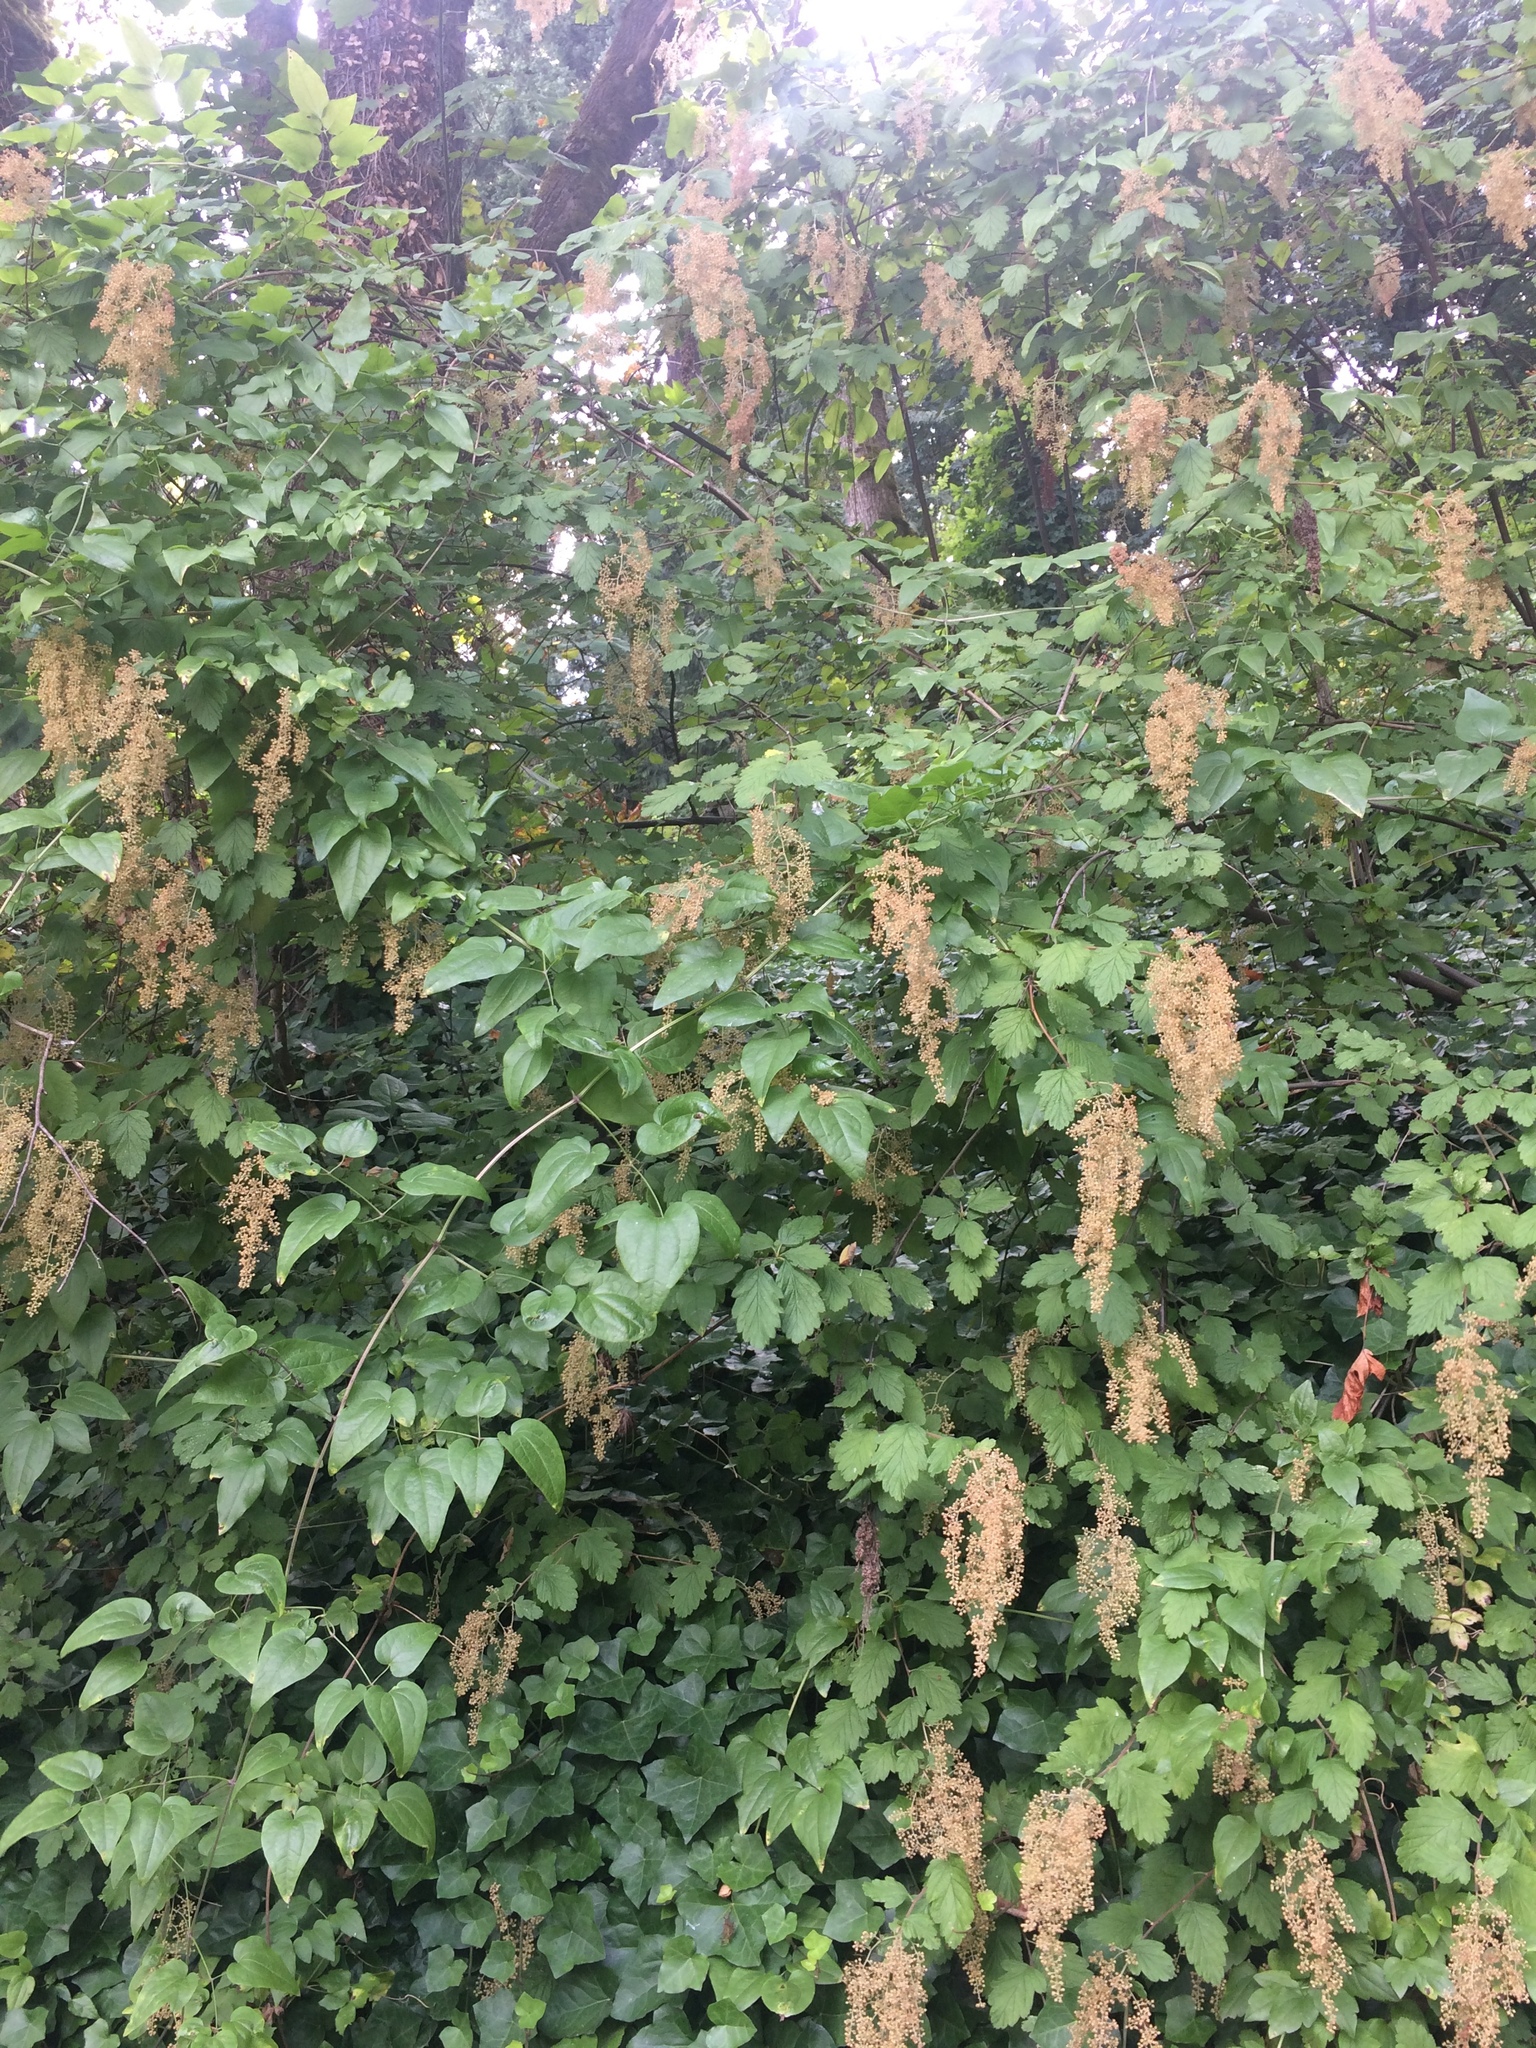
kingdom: Plantae
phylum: Tracheophyta
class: Magnoliopsida
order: Rosales
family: Rosaceae
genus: Holodiscus
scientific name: Holodiscus discolor
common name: Oceanspray
